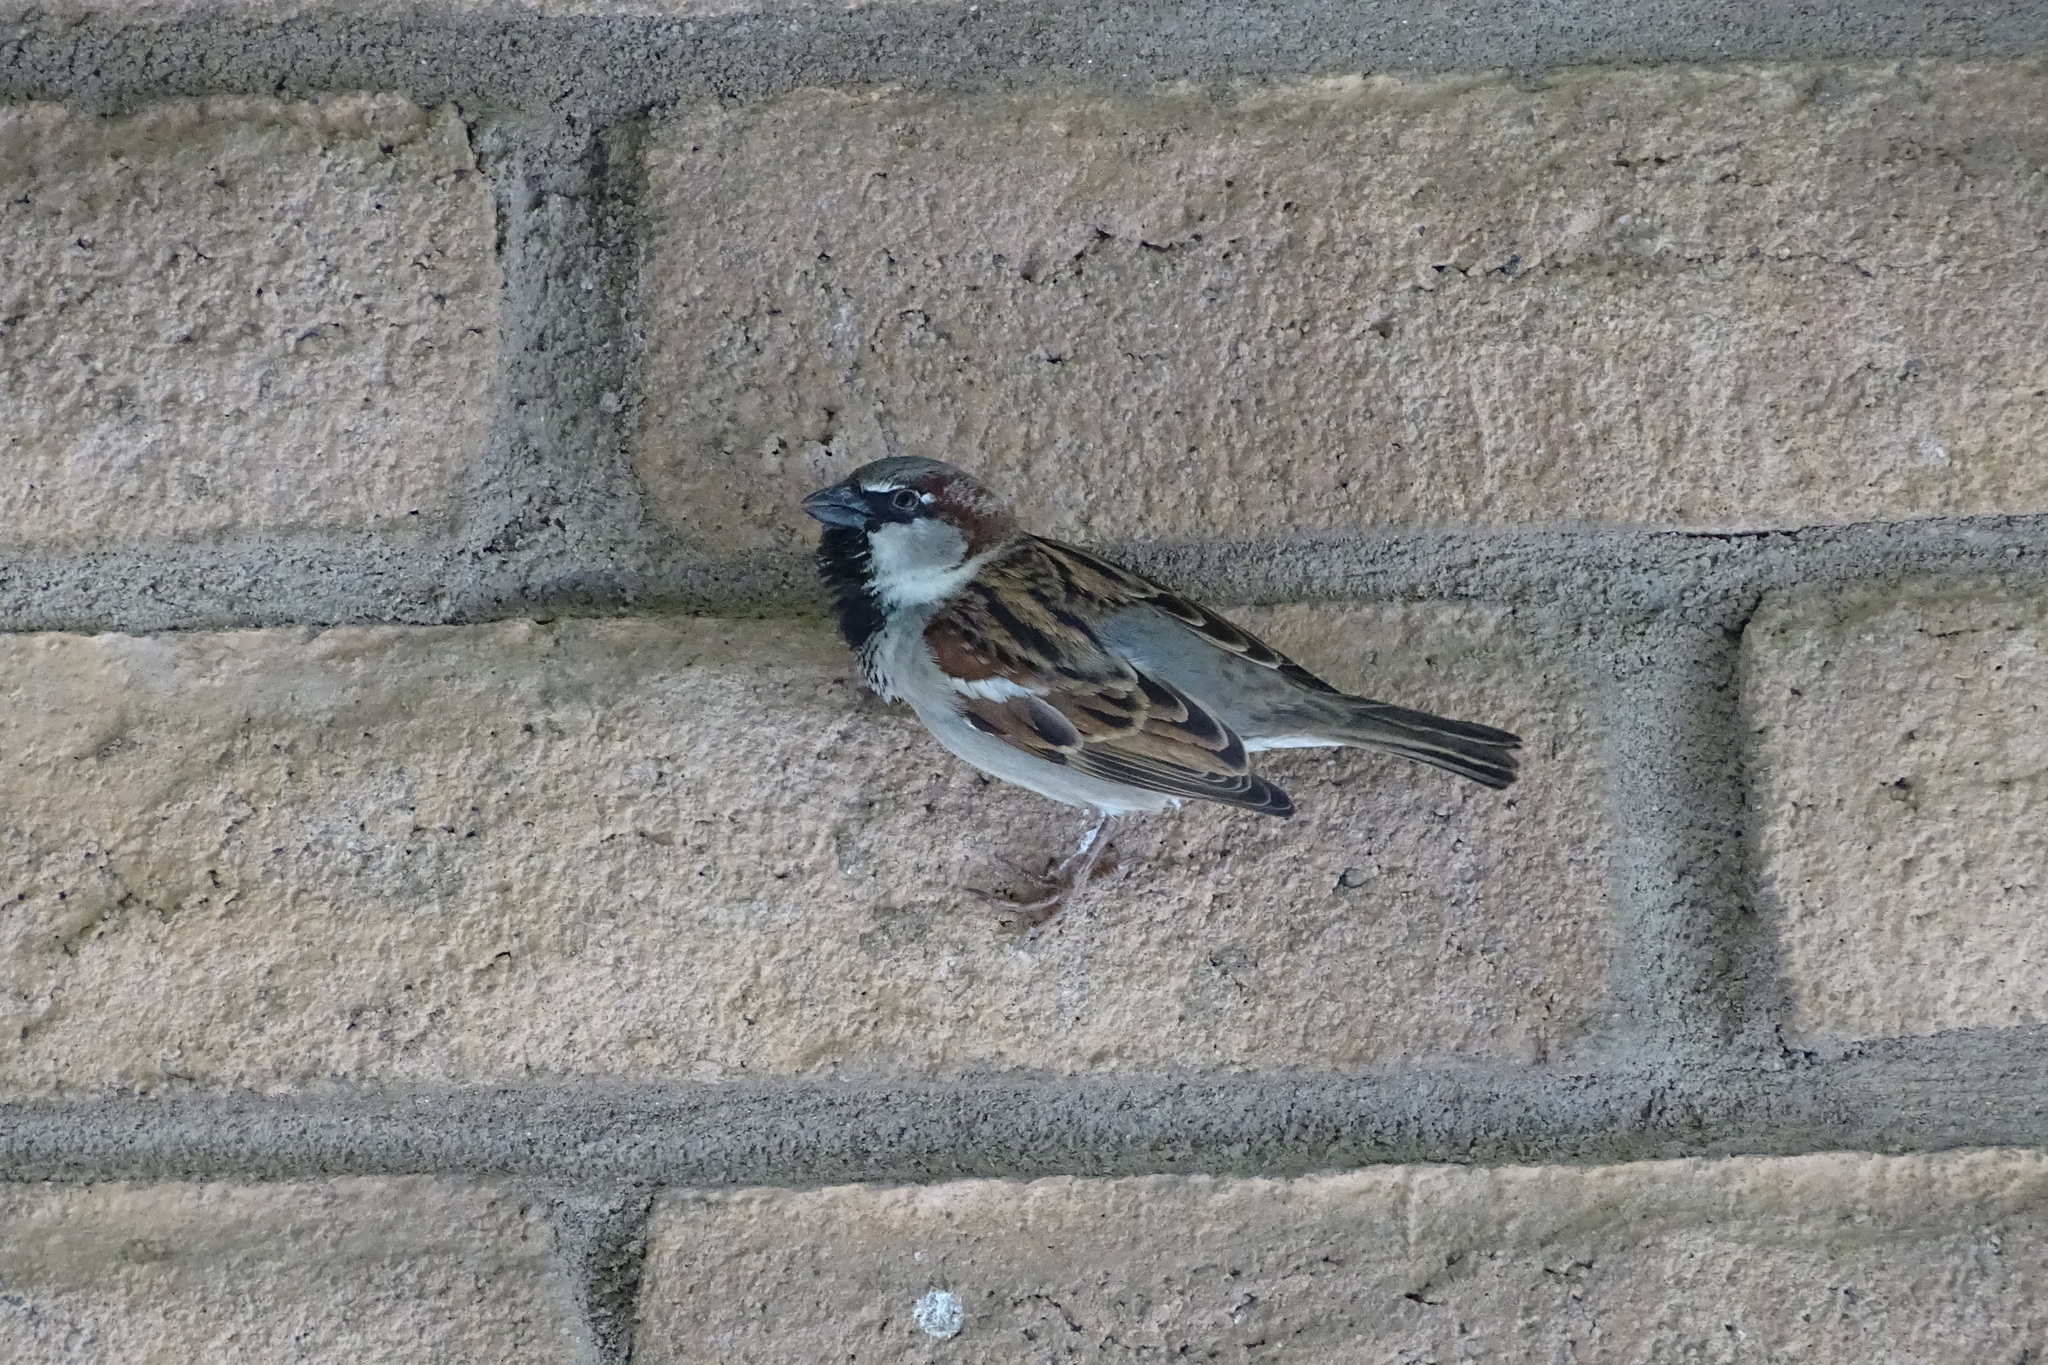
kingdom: Animalia
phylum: Chordata
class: Aves
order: Passeriformes
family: Passeridae
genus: Passer
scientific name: Passer domesticus
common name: House sparrow
